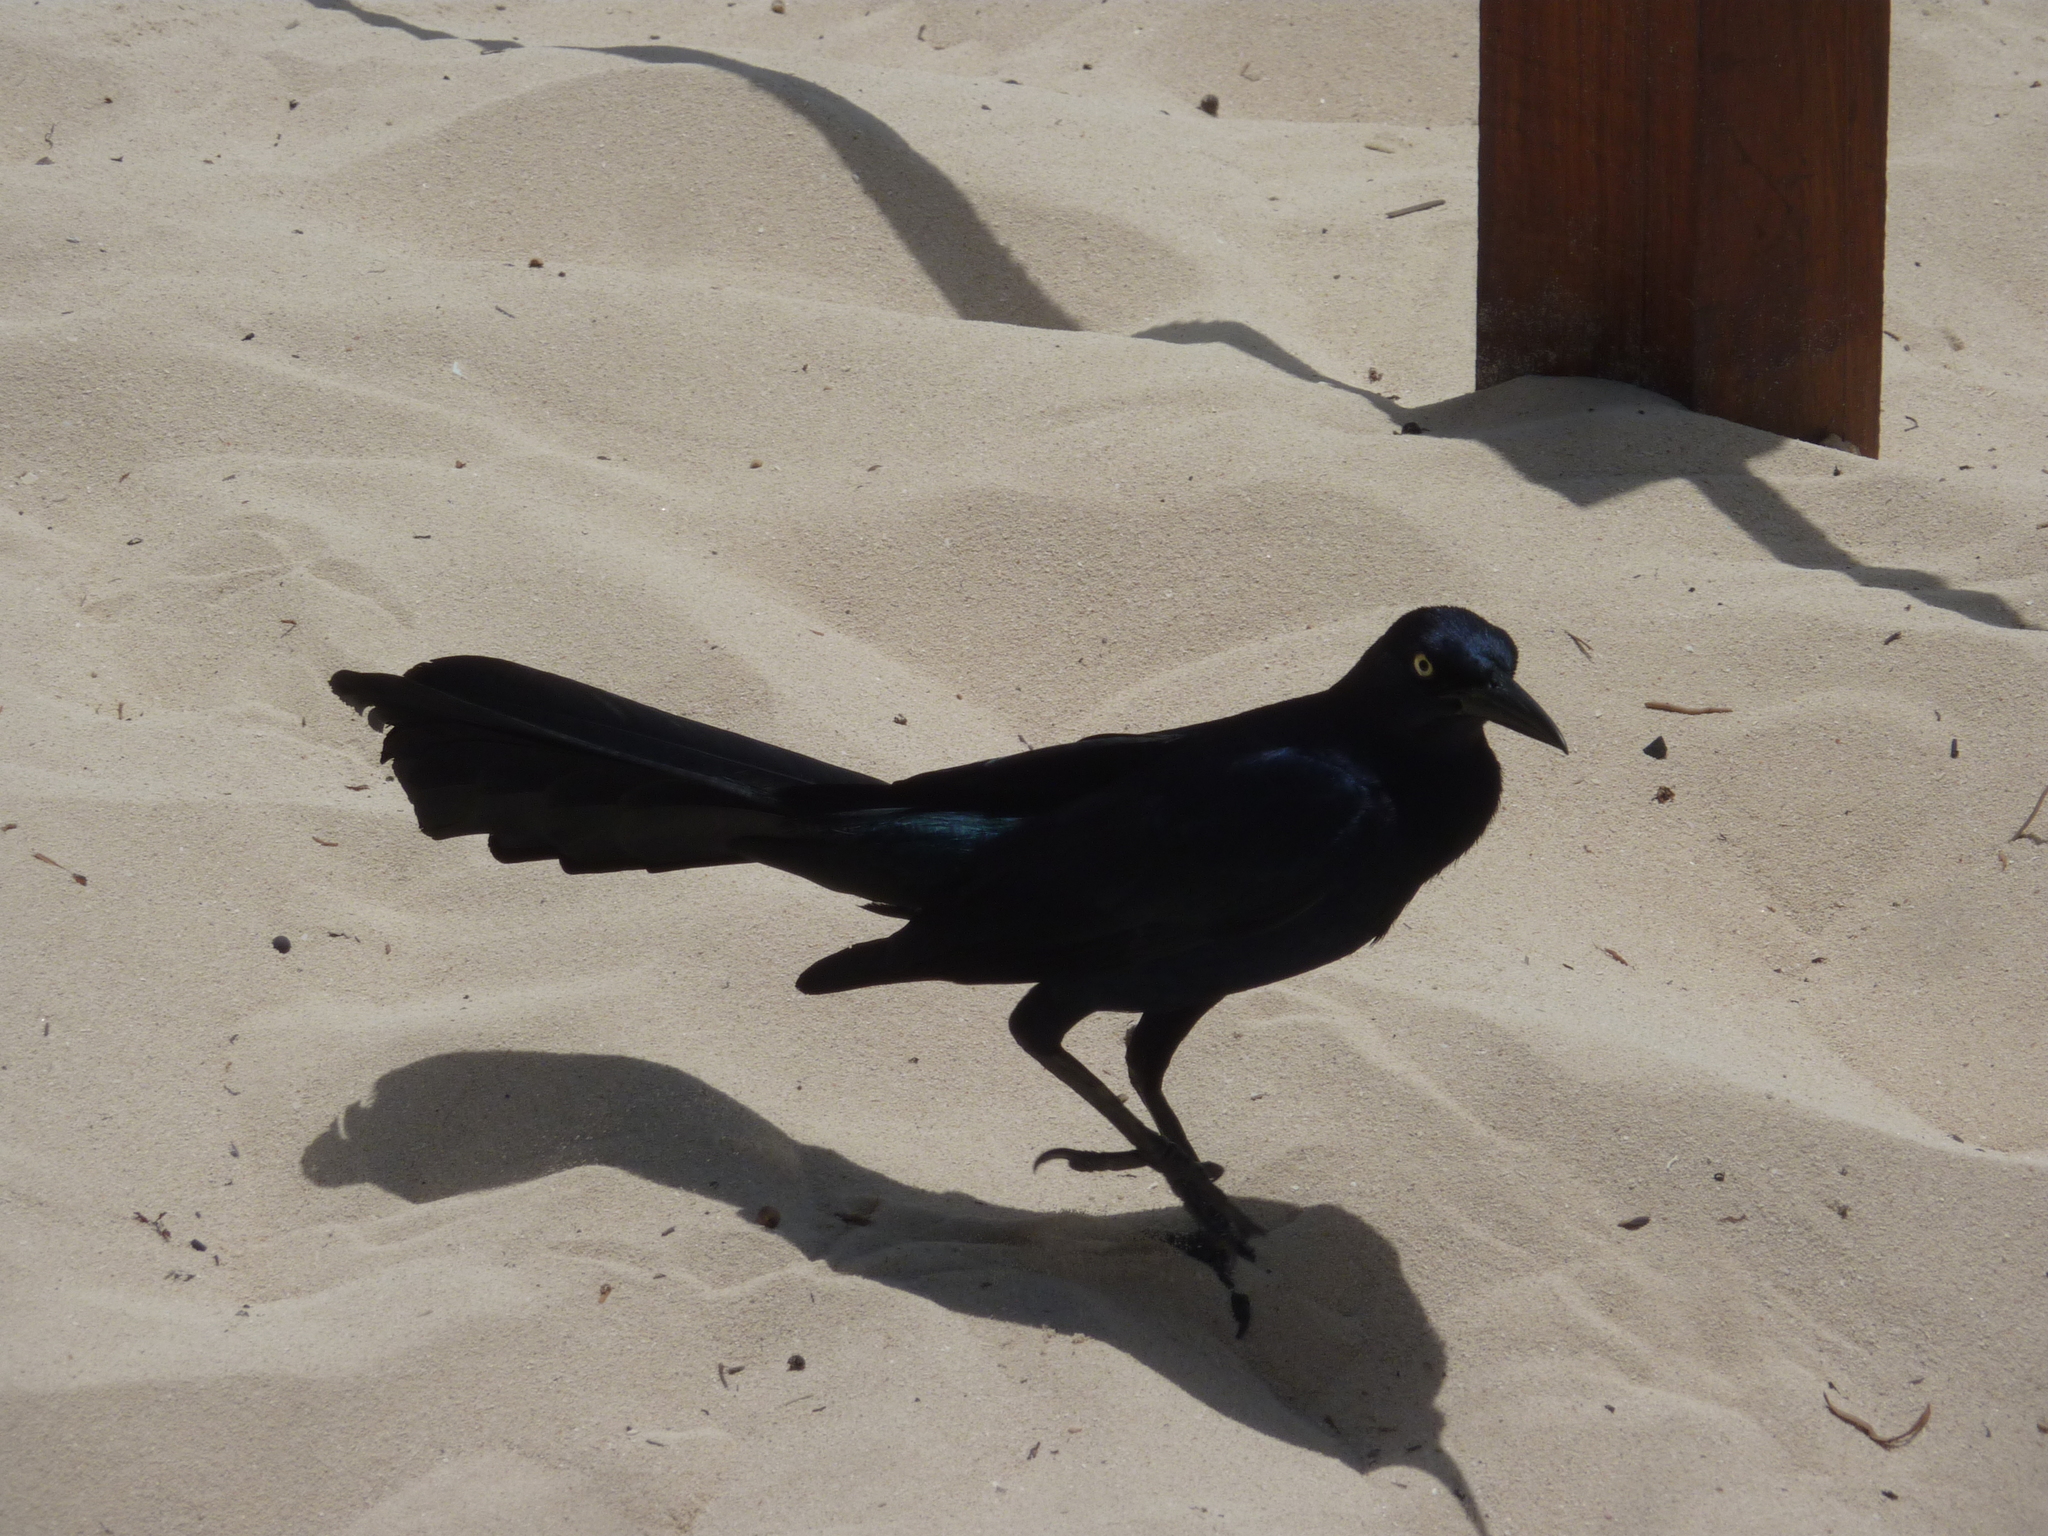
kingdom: Animalia
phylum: Chordata
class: Aves
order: Passeriformes
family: Icteridae
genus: Quiscalus
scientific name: Quiscalus mexicanus
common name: Great-tailed grackle
